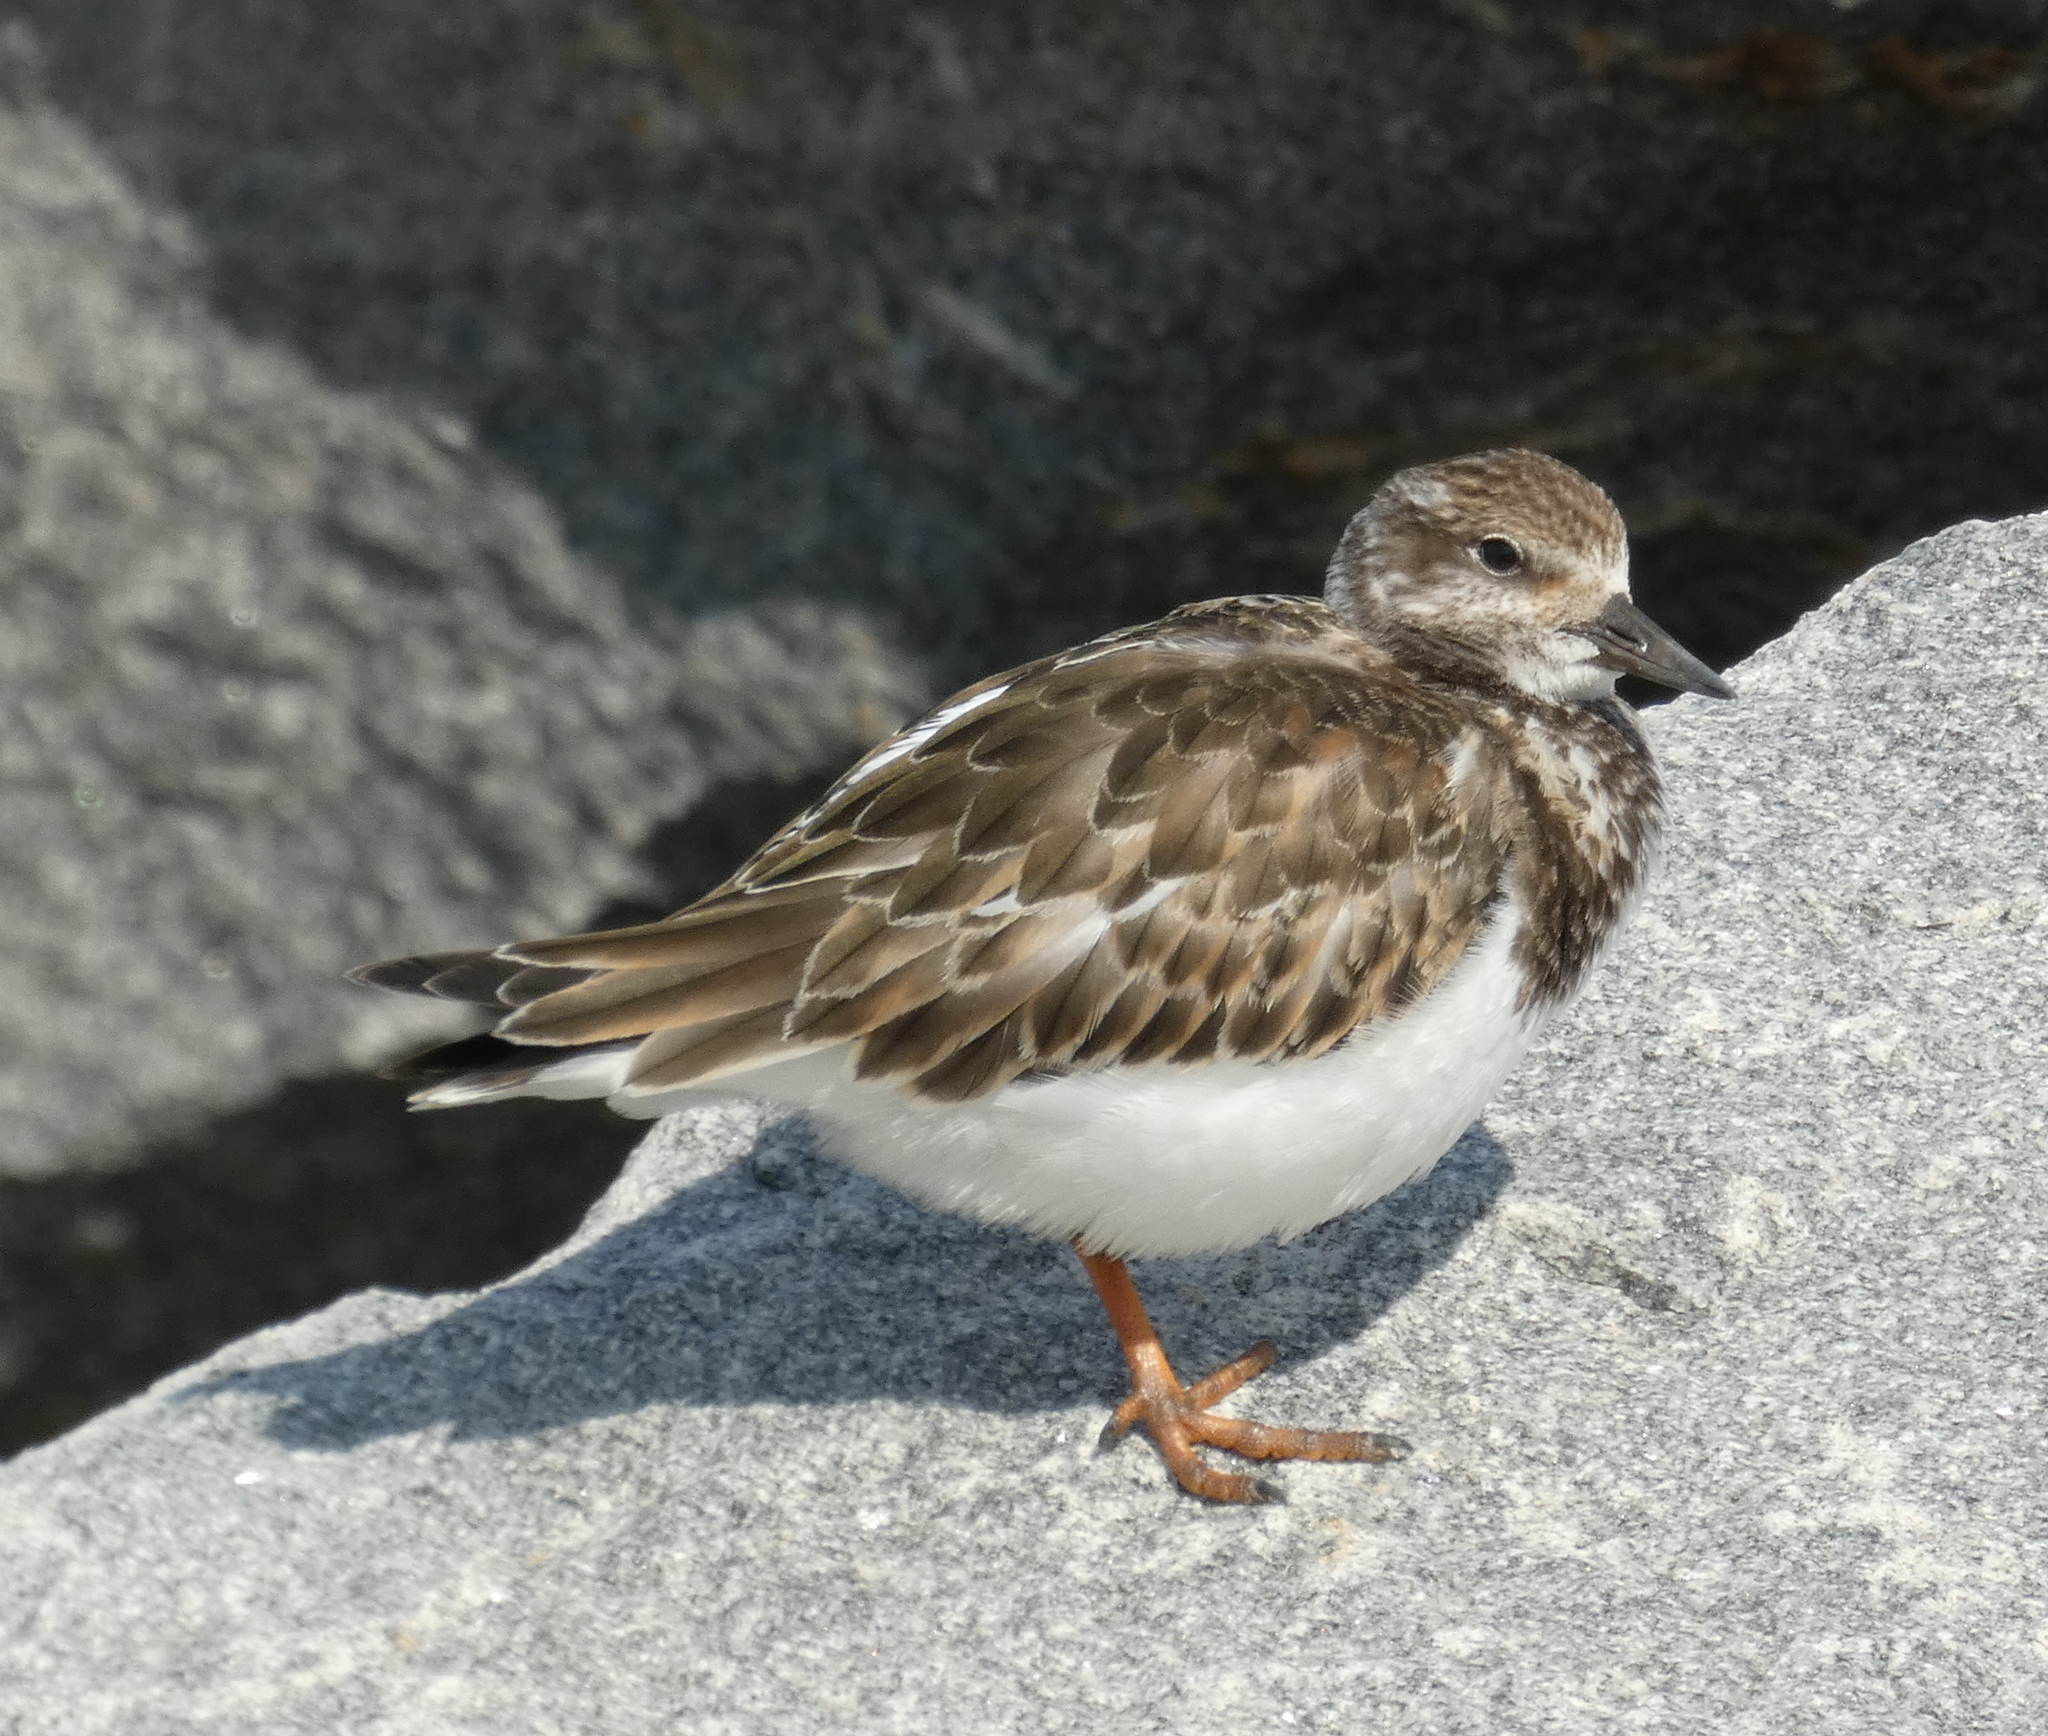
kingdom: Animalia
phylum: Chordata
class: Aves
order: Charadriiformes
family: Scolopacidae
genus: Arenaria
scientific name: Arenaria interpres
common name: Ruddy turnstone
